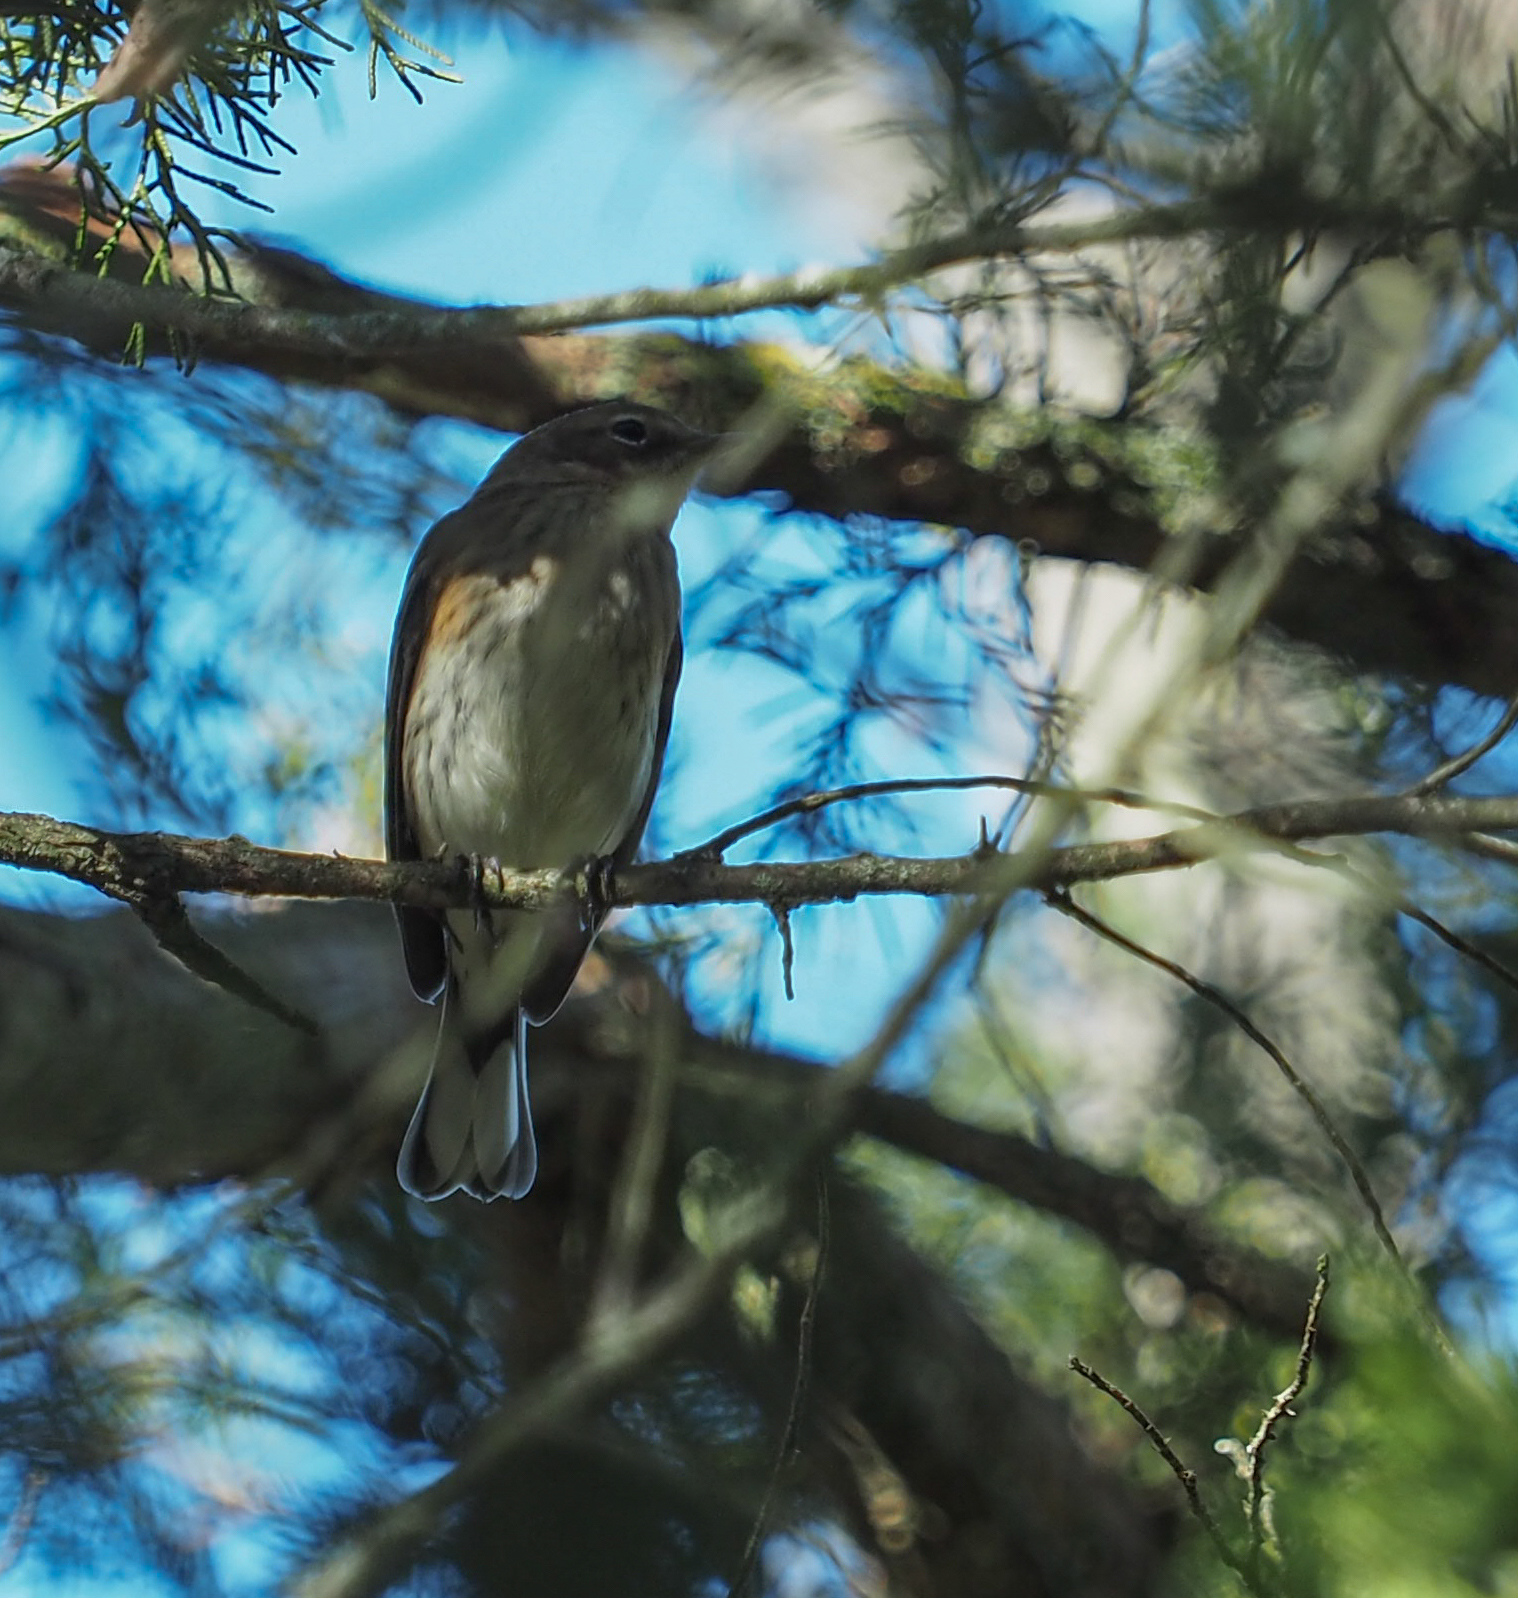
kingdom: Animalia
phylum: Chordata
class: Aves
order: Passeriformes
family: Parulidae
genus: Setophaga
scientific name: Setophaga coronata
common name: Myrtle warbler
